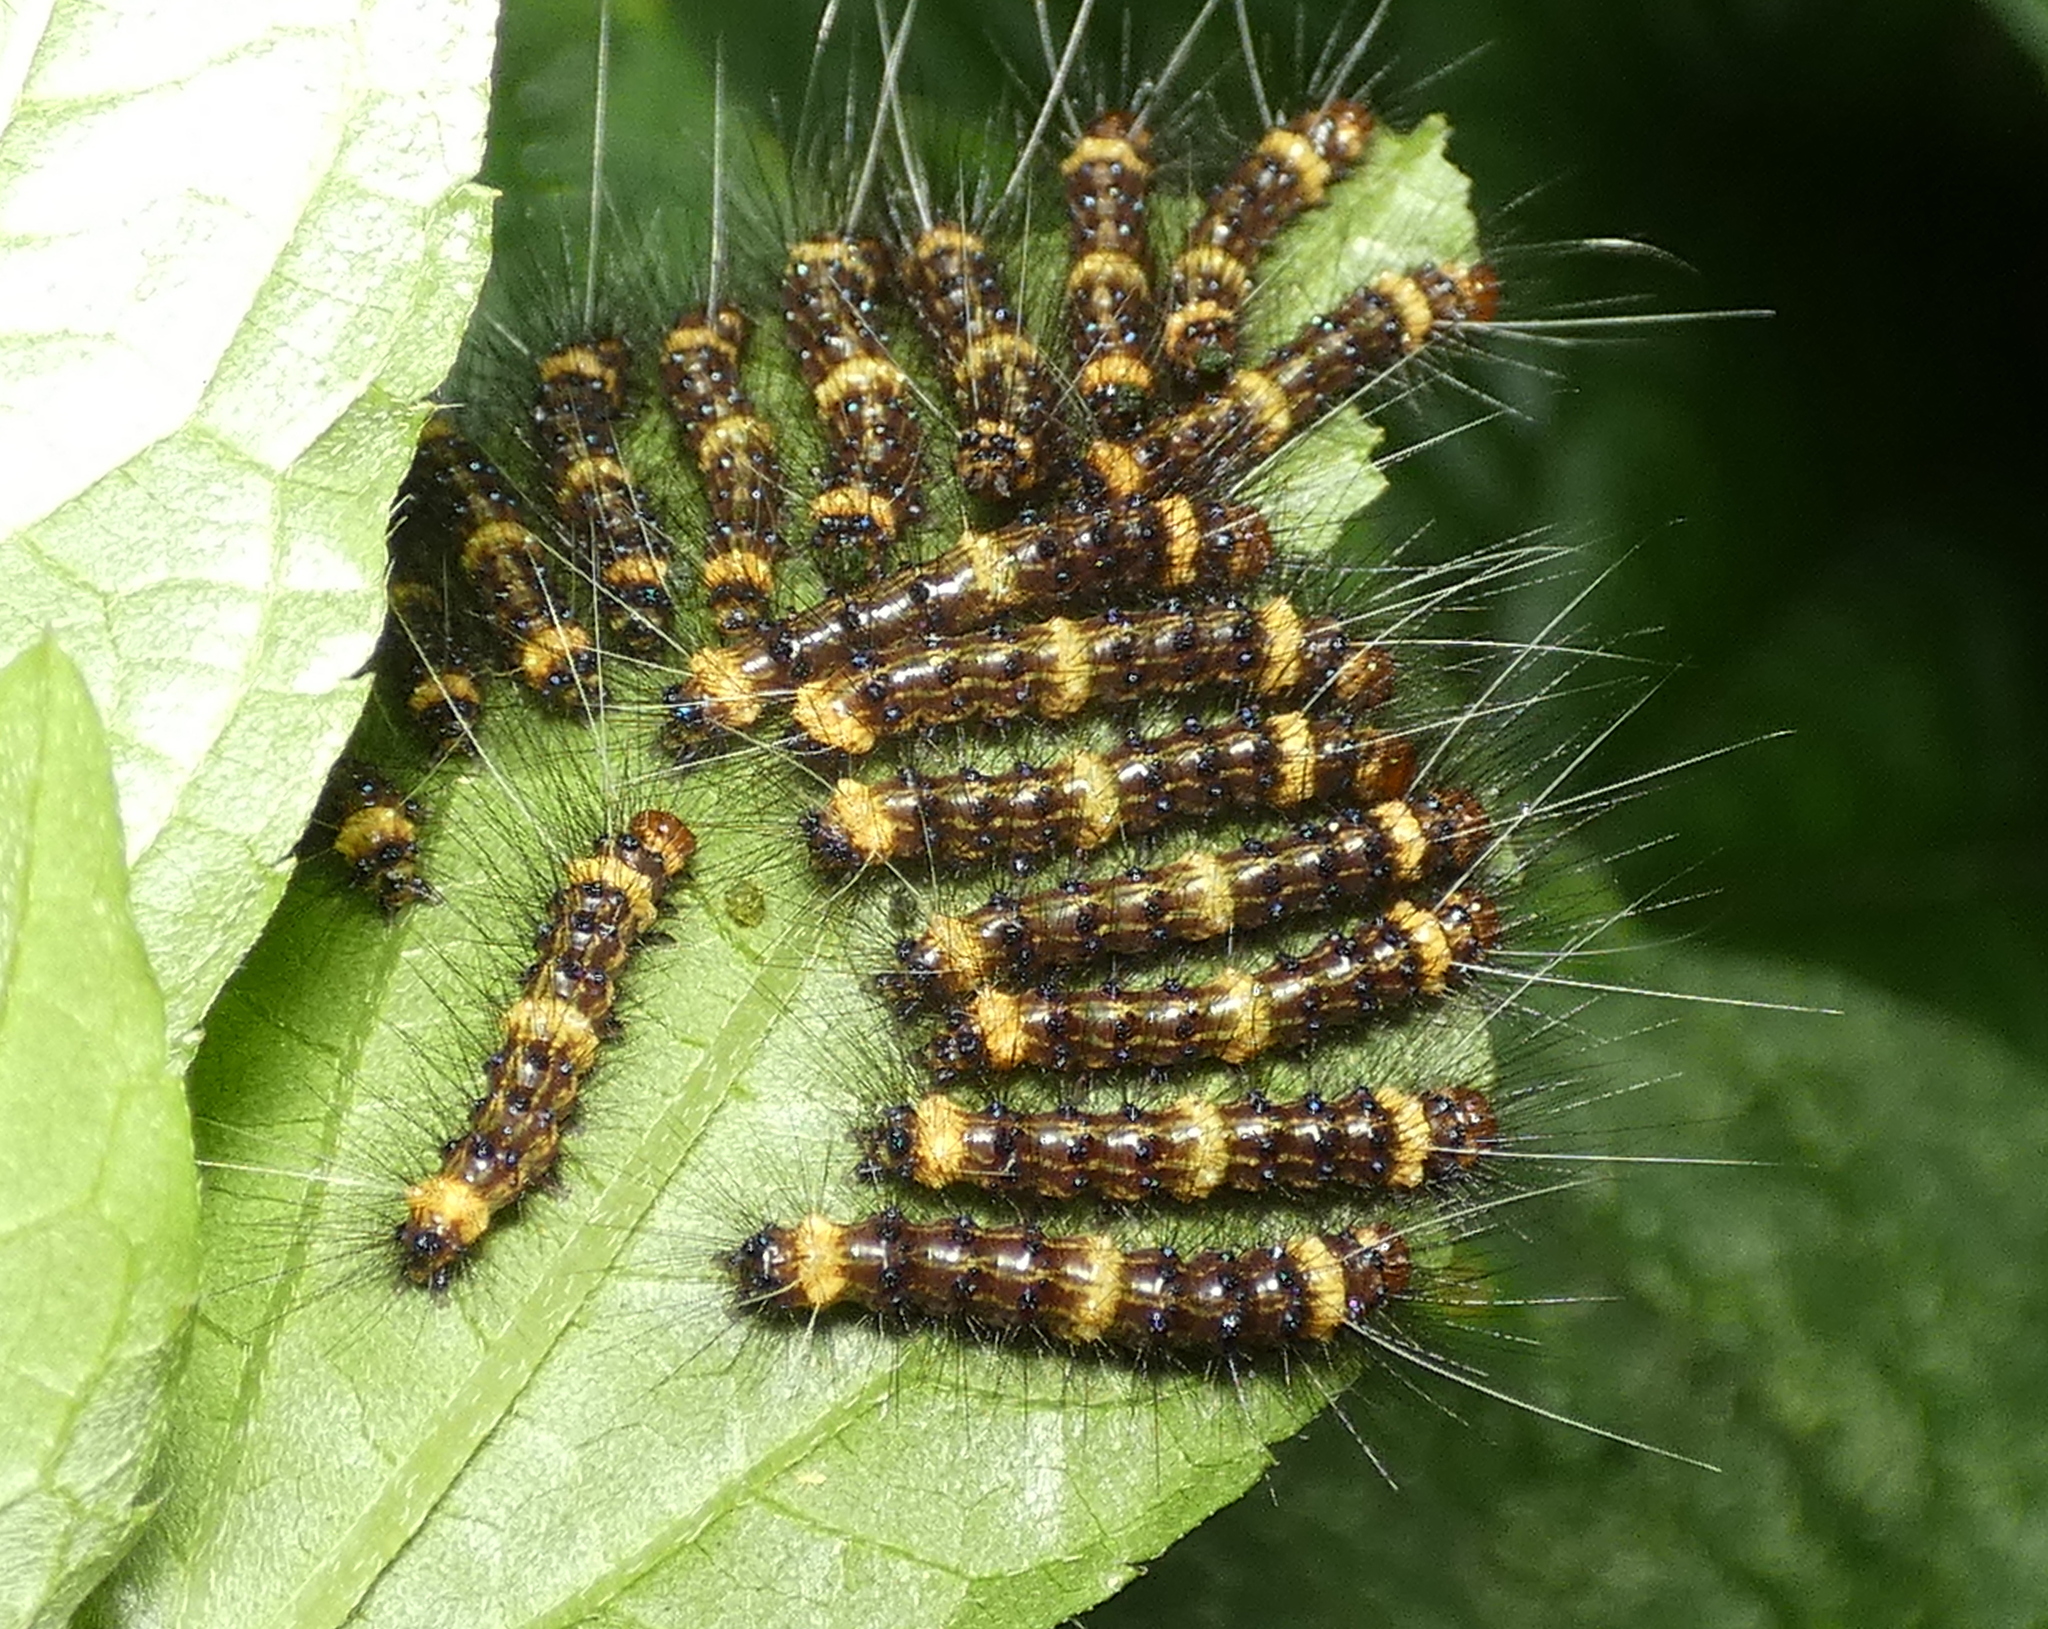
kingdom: Animalia
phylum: Arthropoda
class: Insecta
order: Lepidoptera
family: Erebidae
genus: Dysschema
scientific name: Dysschema tricolora
